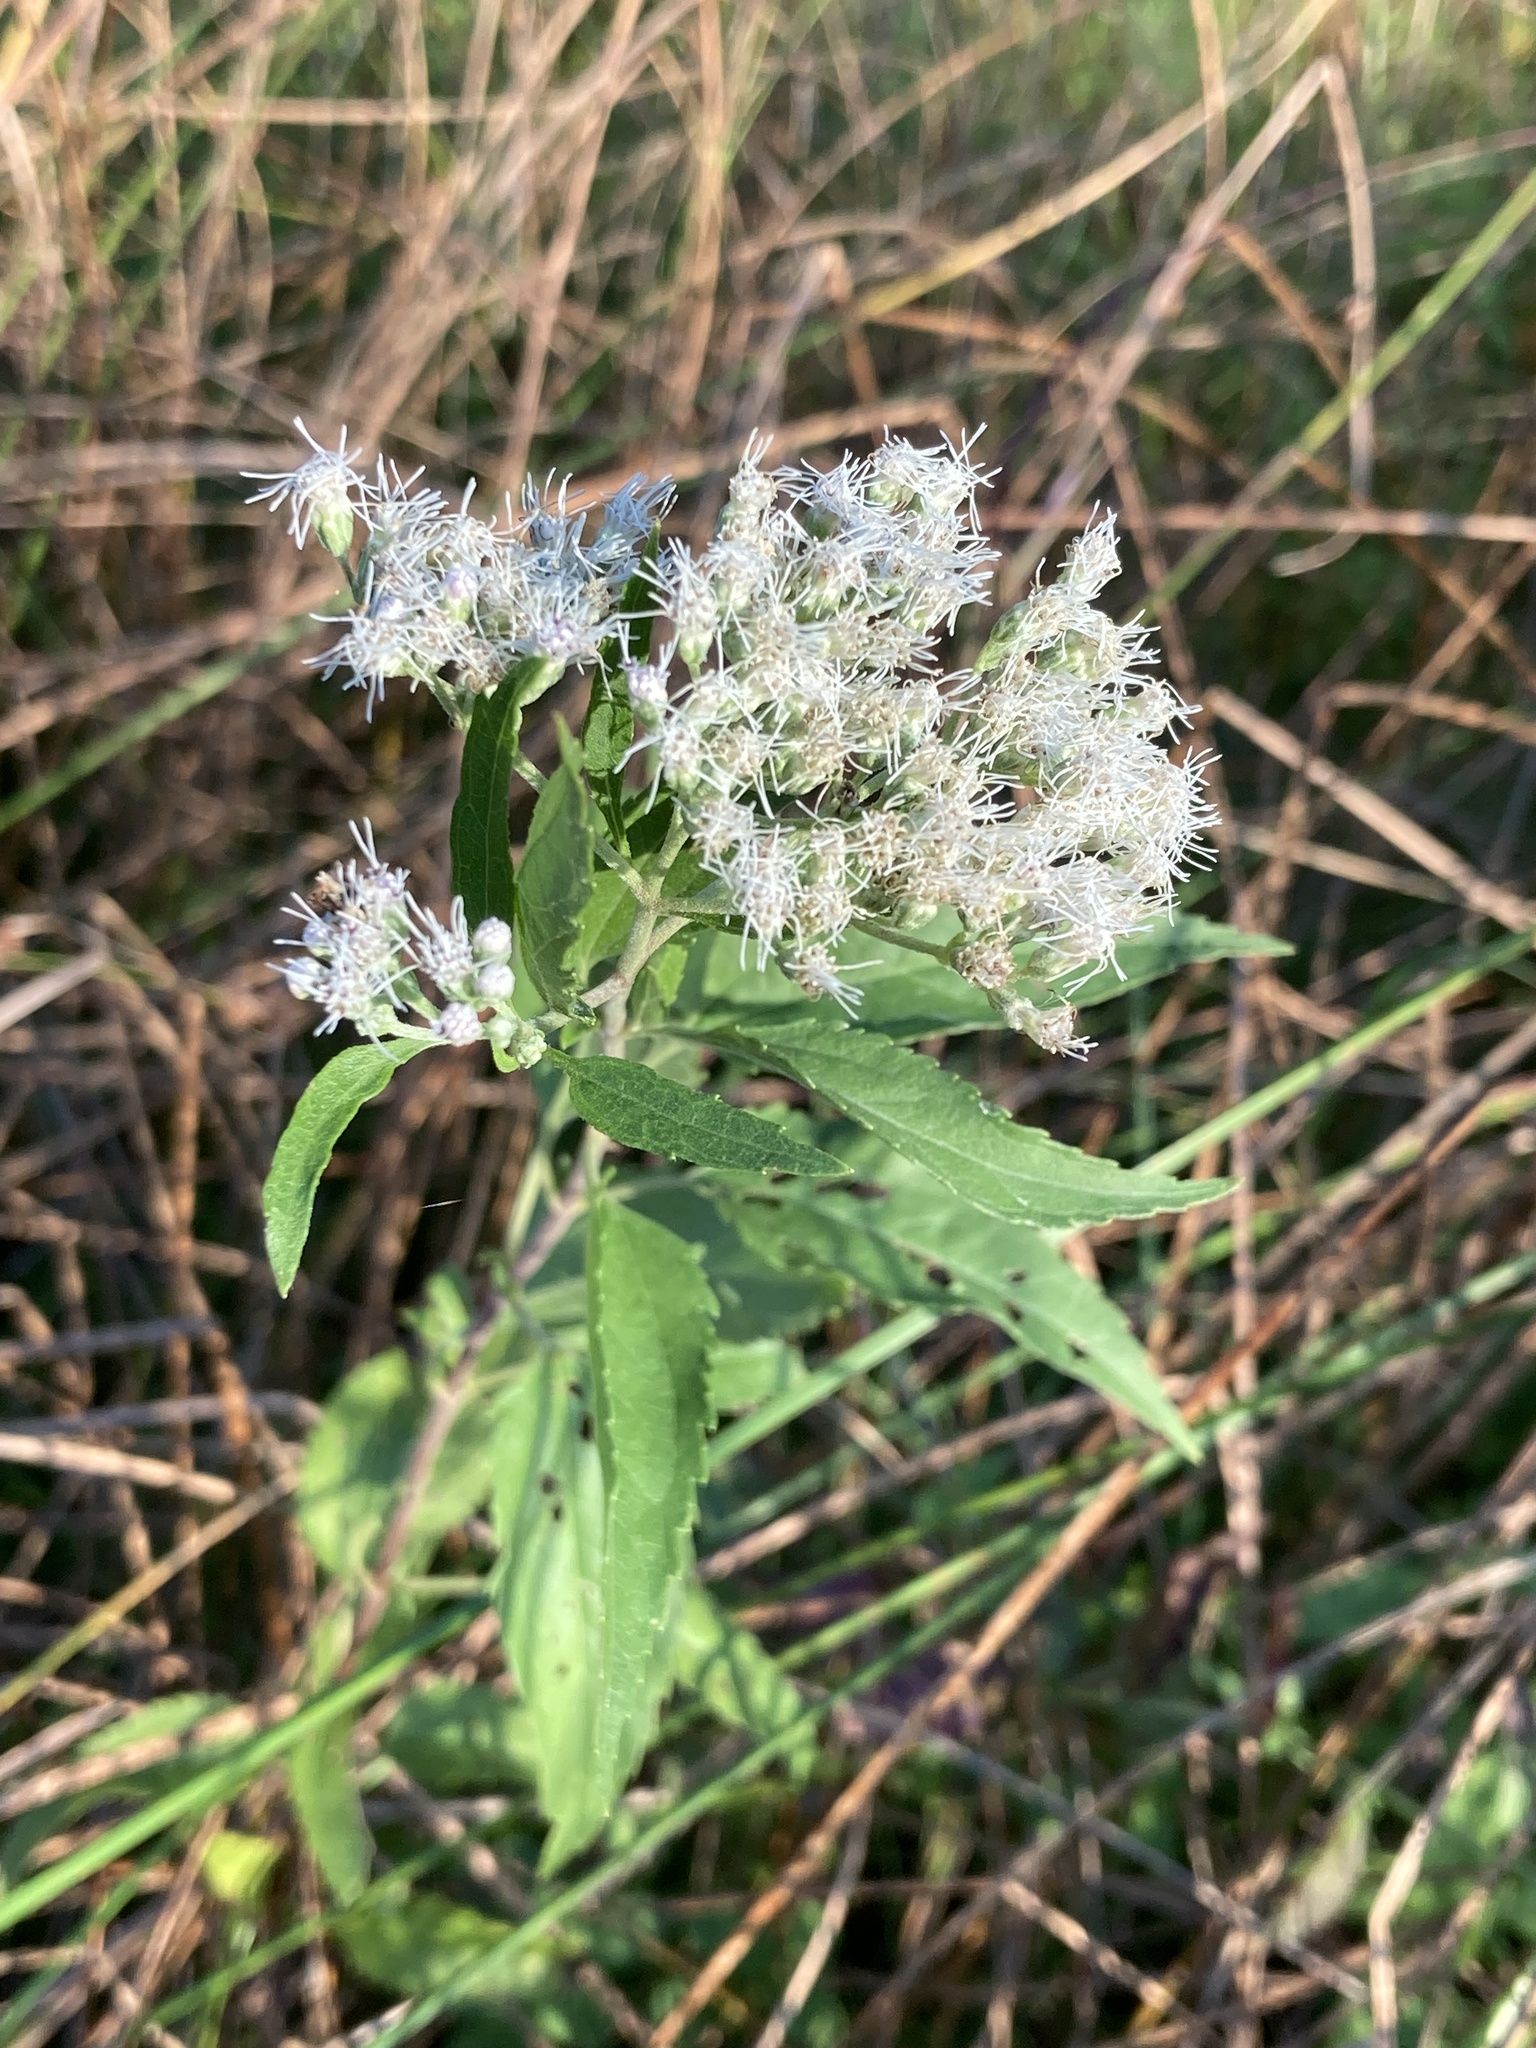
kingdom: Plantae
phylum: Tracheophyta
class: Magnoliopsida
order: Asterales
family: Asteraceae
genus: Eupatorium
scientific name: Eupatorium serotinum
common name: Late boneset
